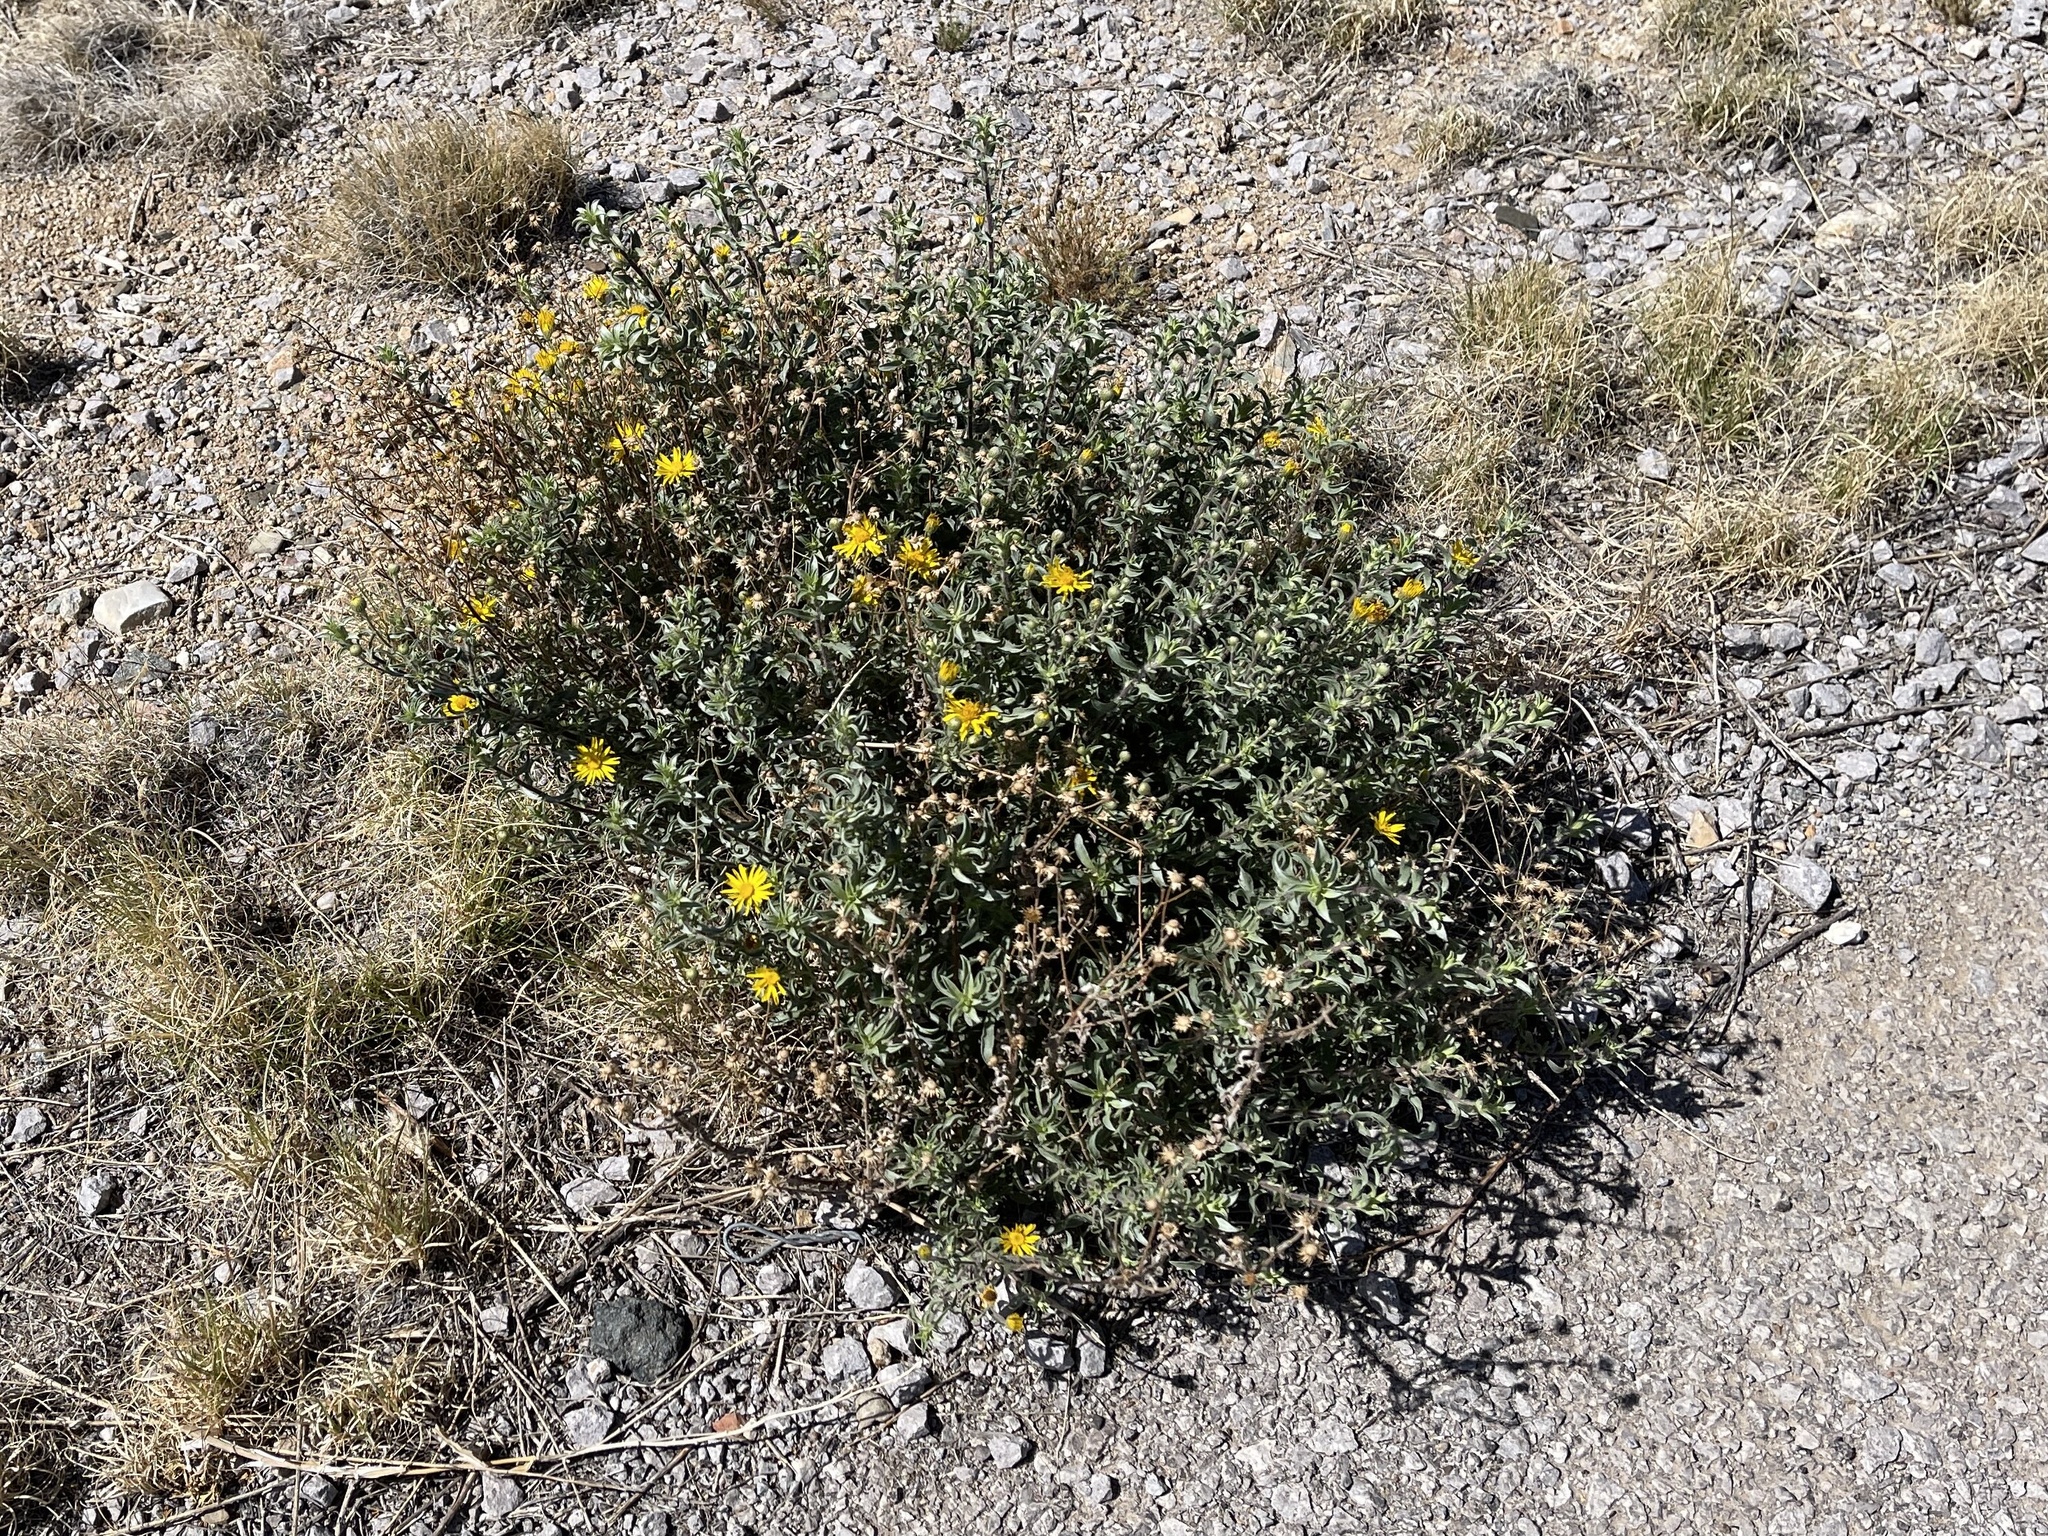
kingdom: Plantae
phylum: Tracheophyta
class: Magnoliopsida
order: Asterales
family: Asteraceae
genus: Heterotheca
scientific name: Heterotheca zionensis
